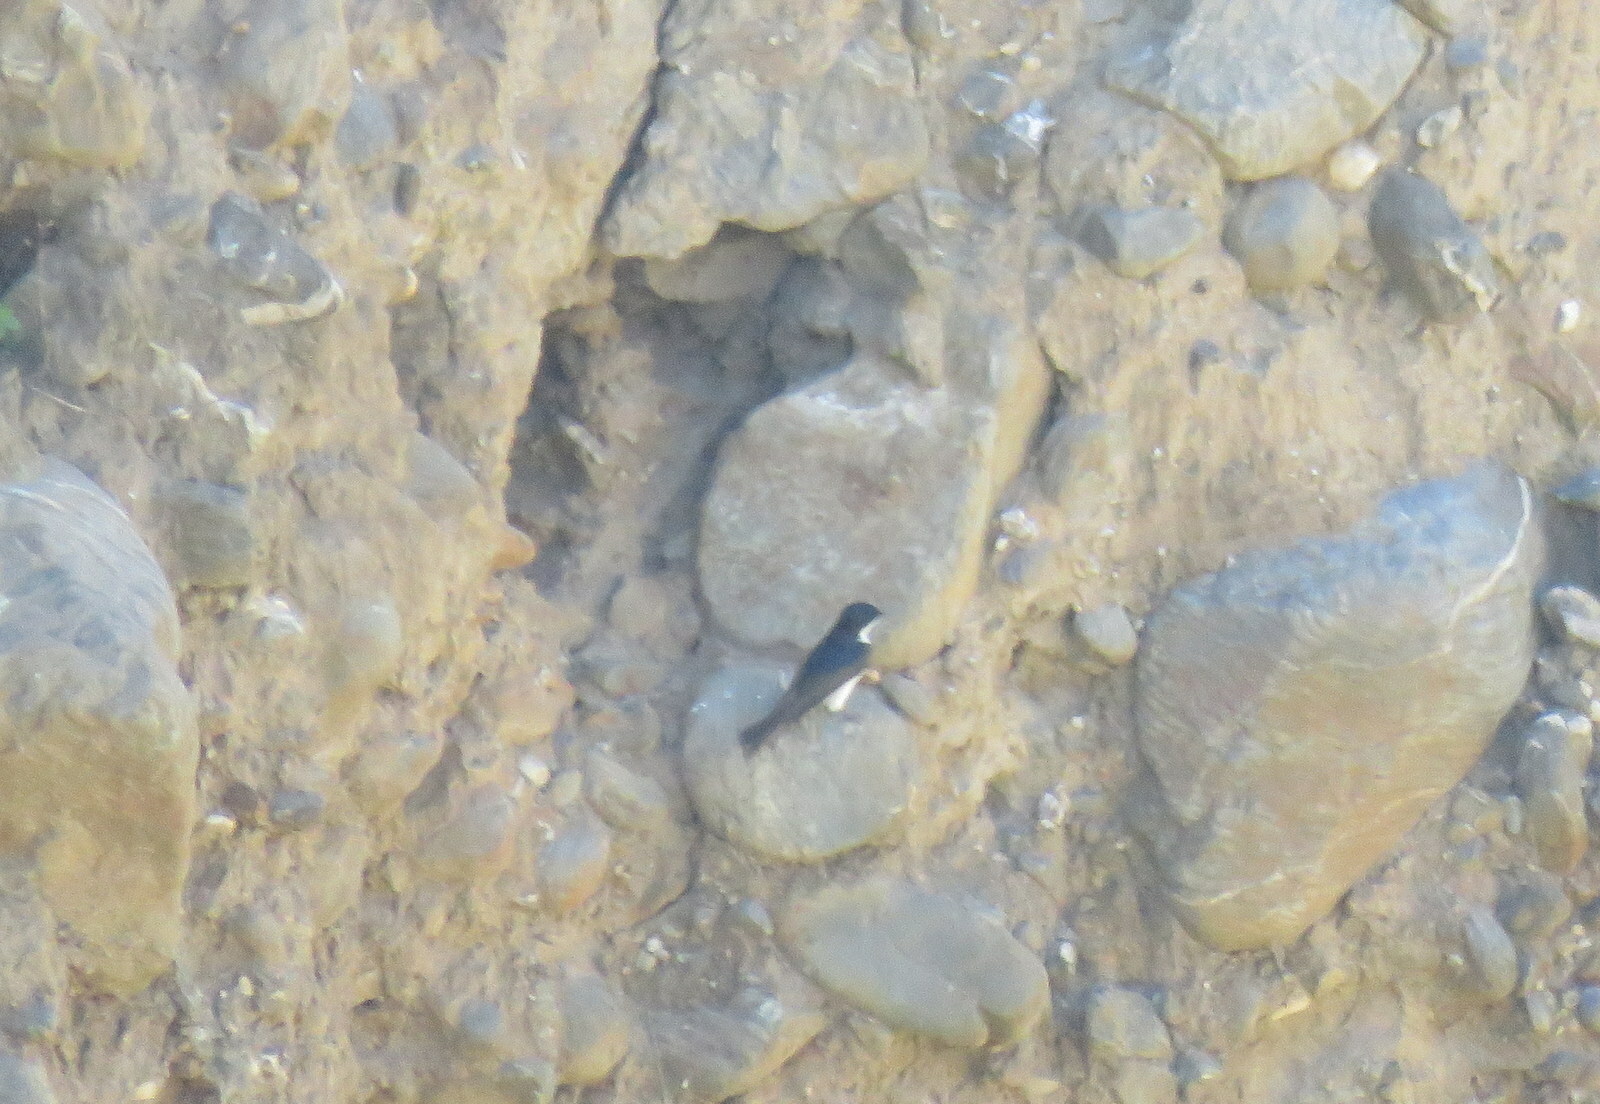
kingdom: Animalia
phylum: Chordata
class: Aves
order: Passeriformes
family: Hirundinidae
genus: Notiochelidon
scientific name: Notiochelidon cyanoleuca
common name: Blue-and-white swallow
